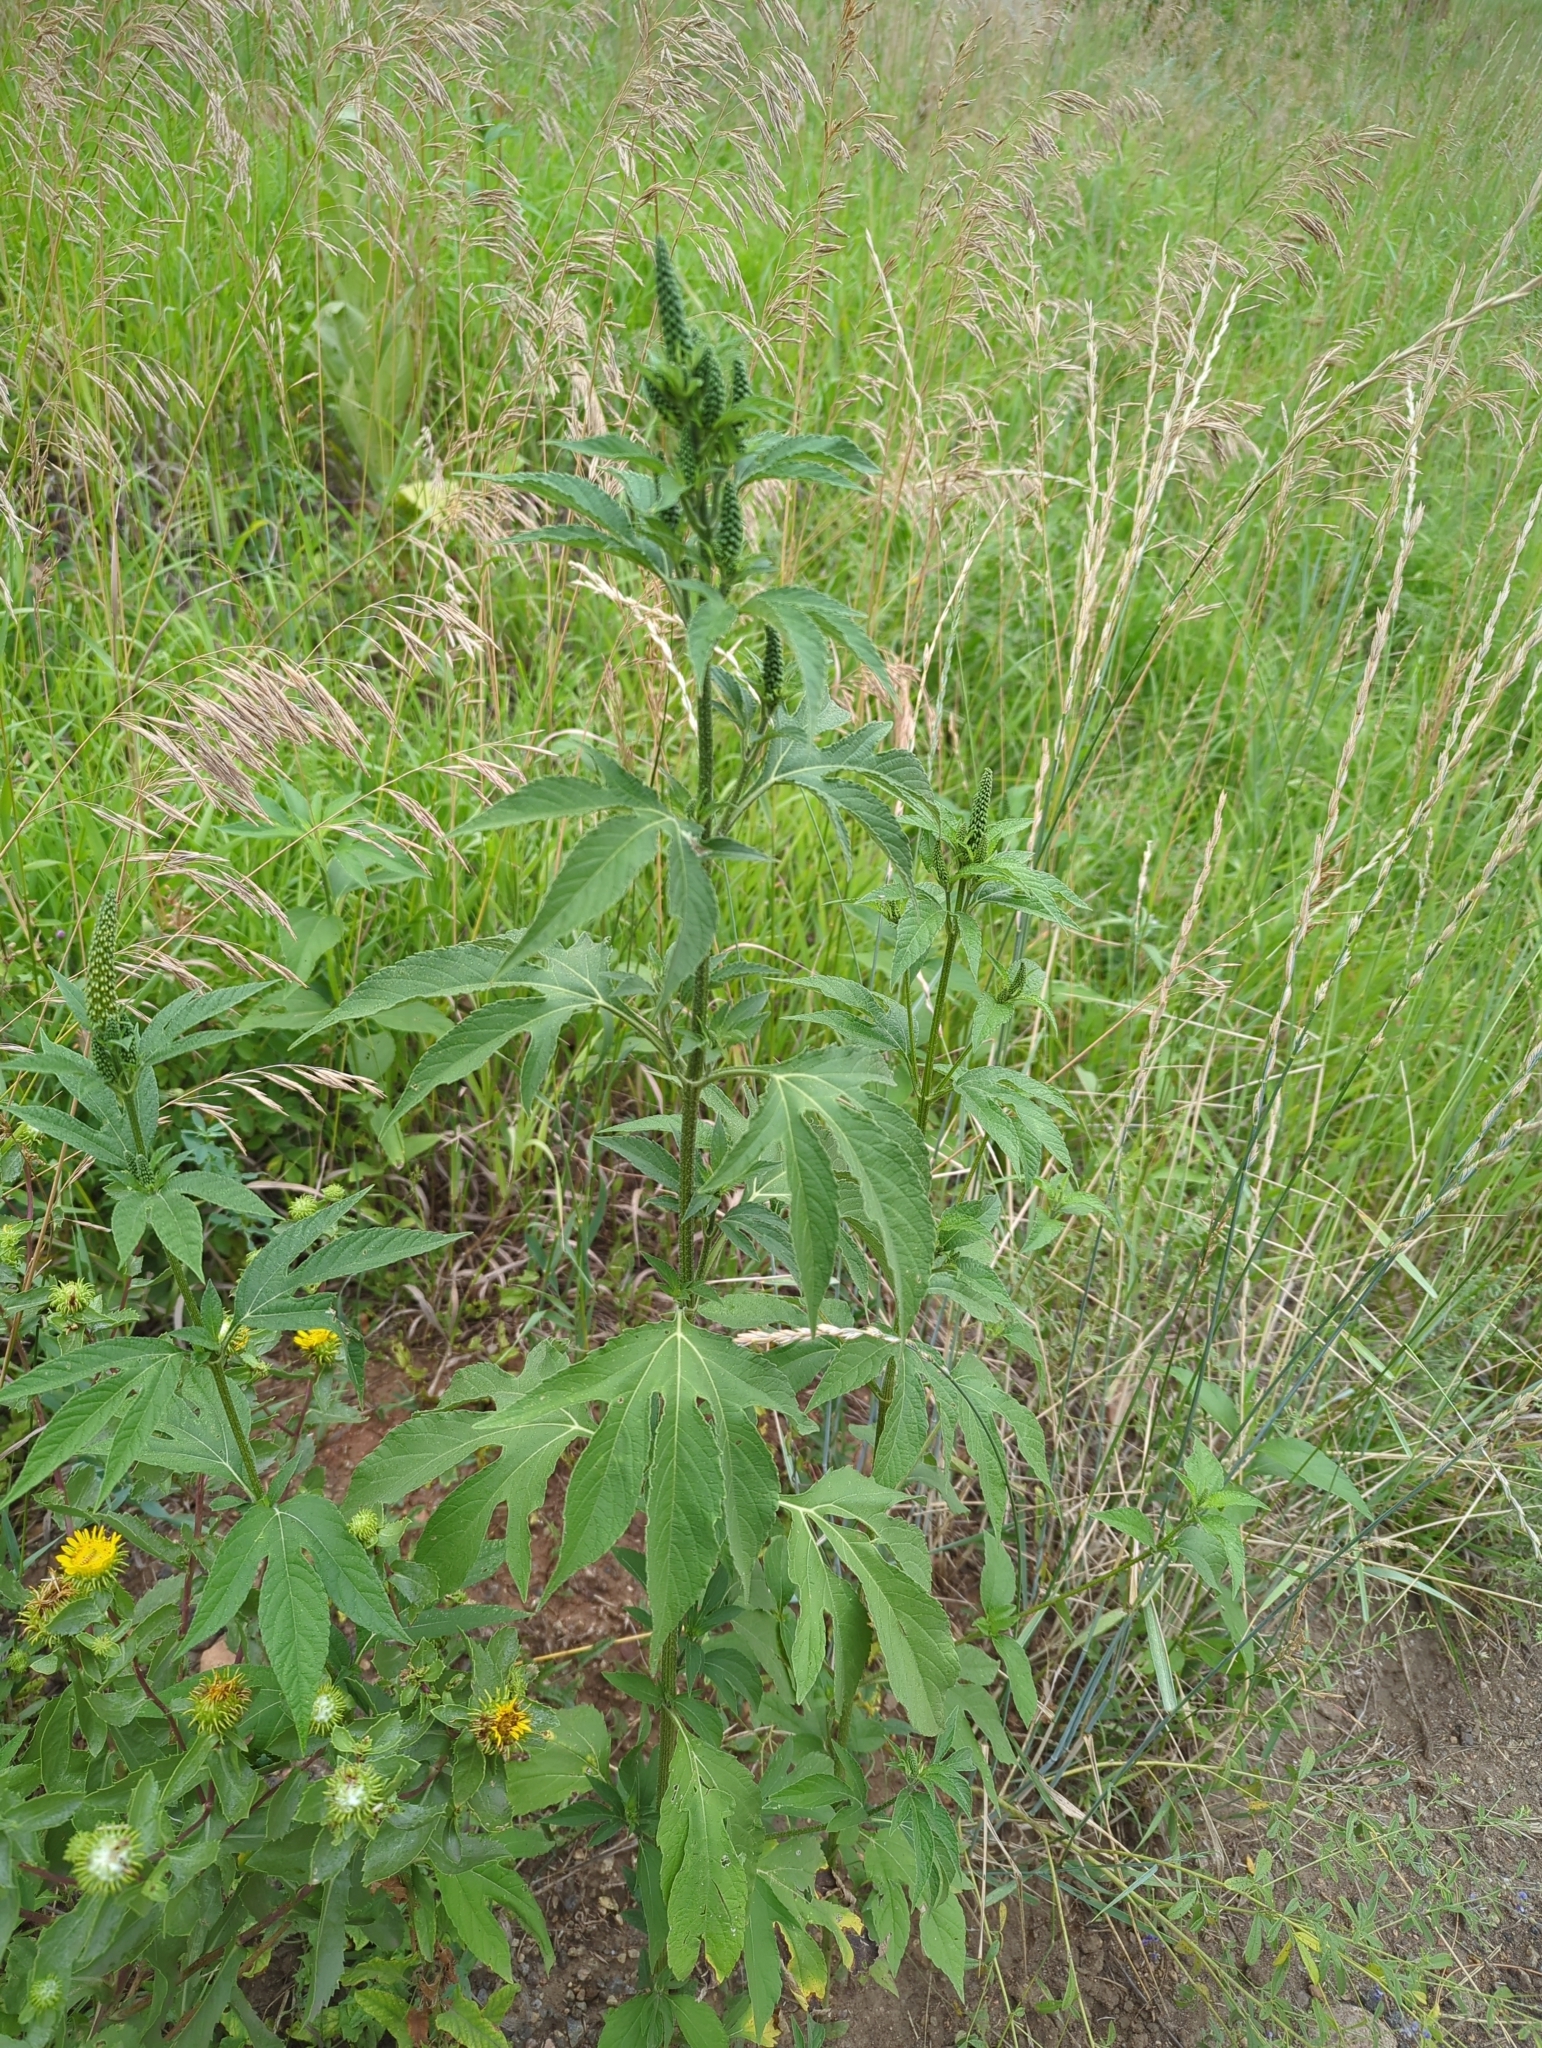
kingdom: Plantae
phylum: Tracheophyta
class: Magnoliopsida
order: Asterales
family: Asteraceae
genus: Ambrosia
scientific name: Ambrosia trifida
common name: Giant ragweed
